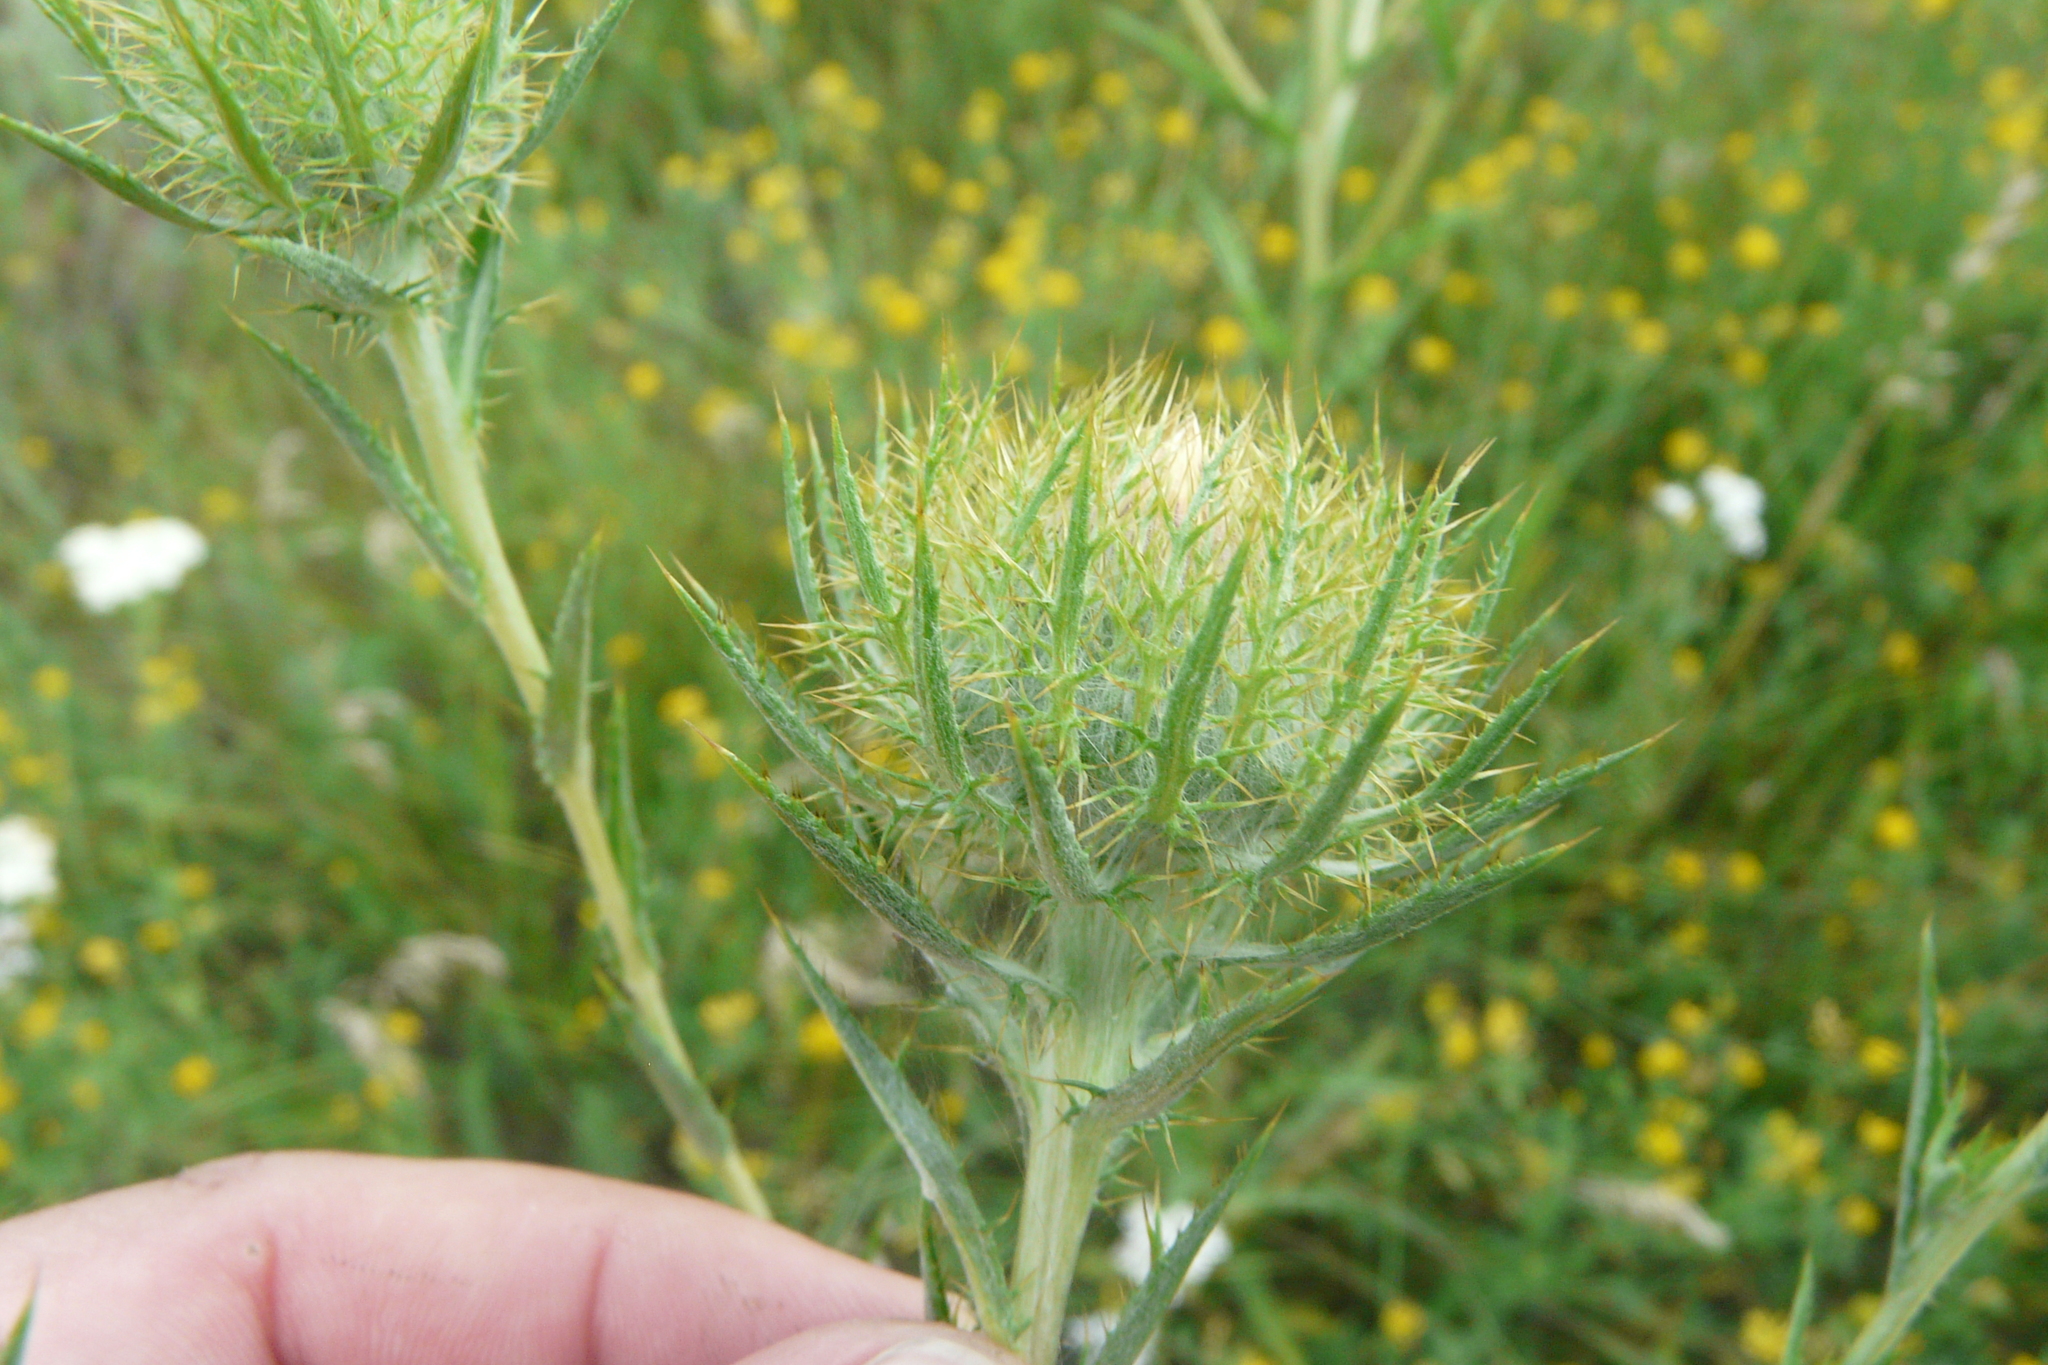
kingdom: Plantae
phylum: Tracheophyta
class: Magnoliopsida
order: Asterales
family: Asteraceae
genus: Carlina
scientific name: Carlina biebersteinii
